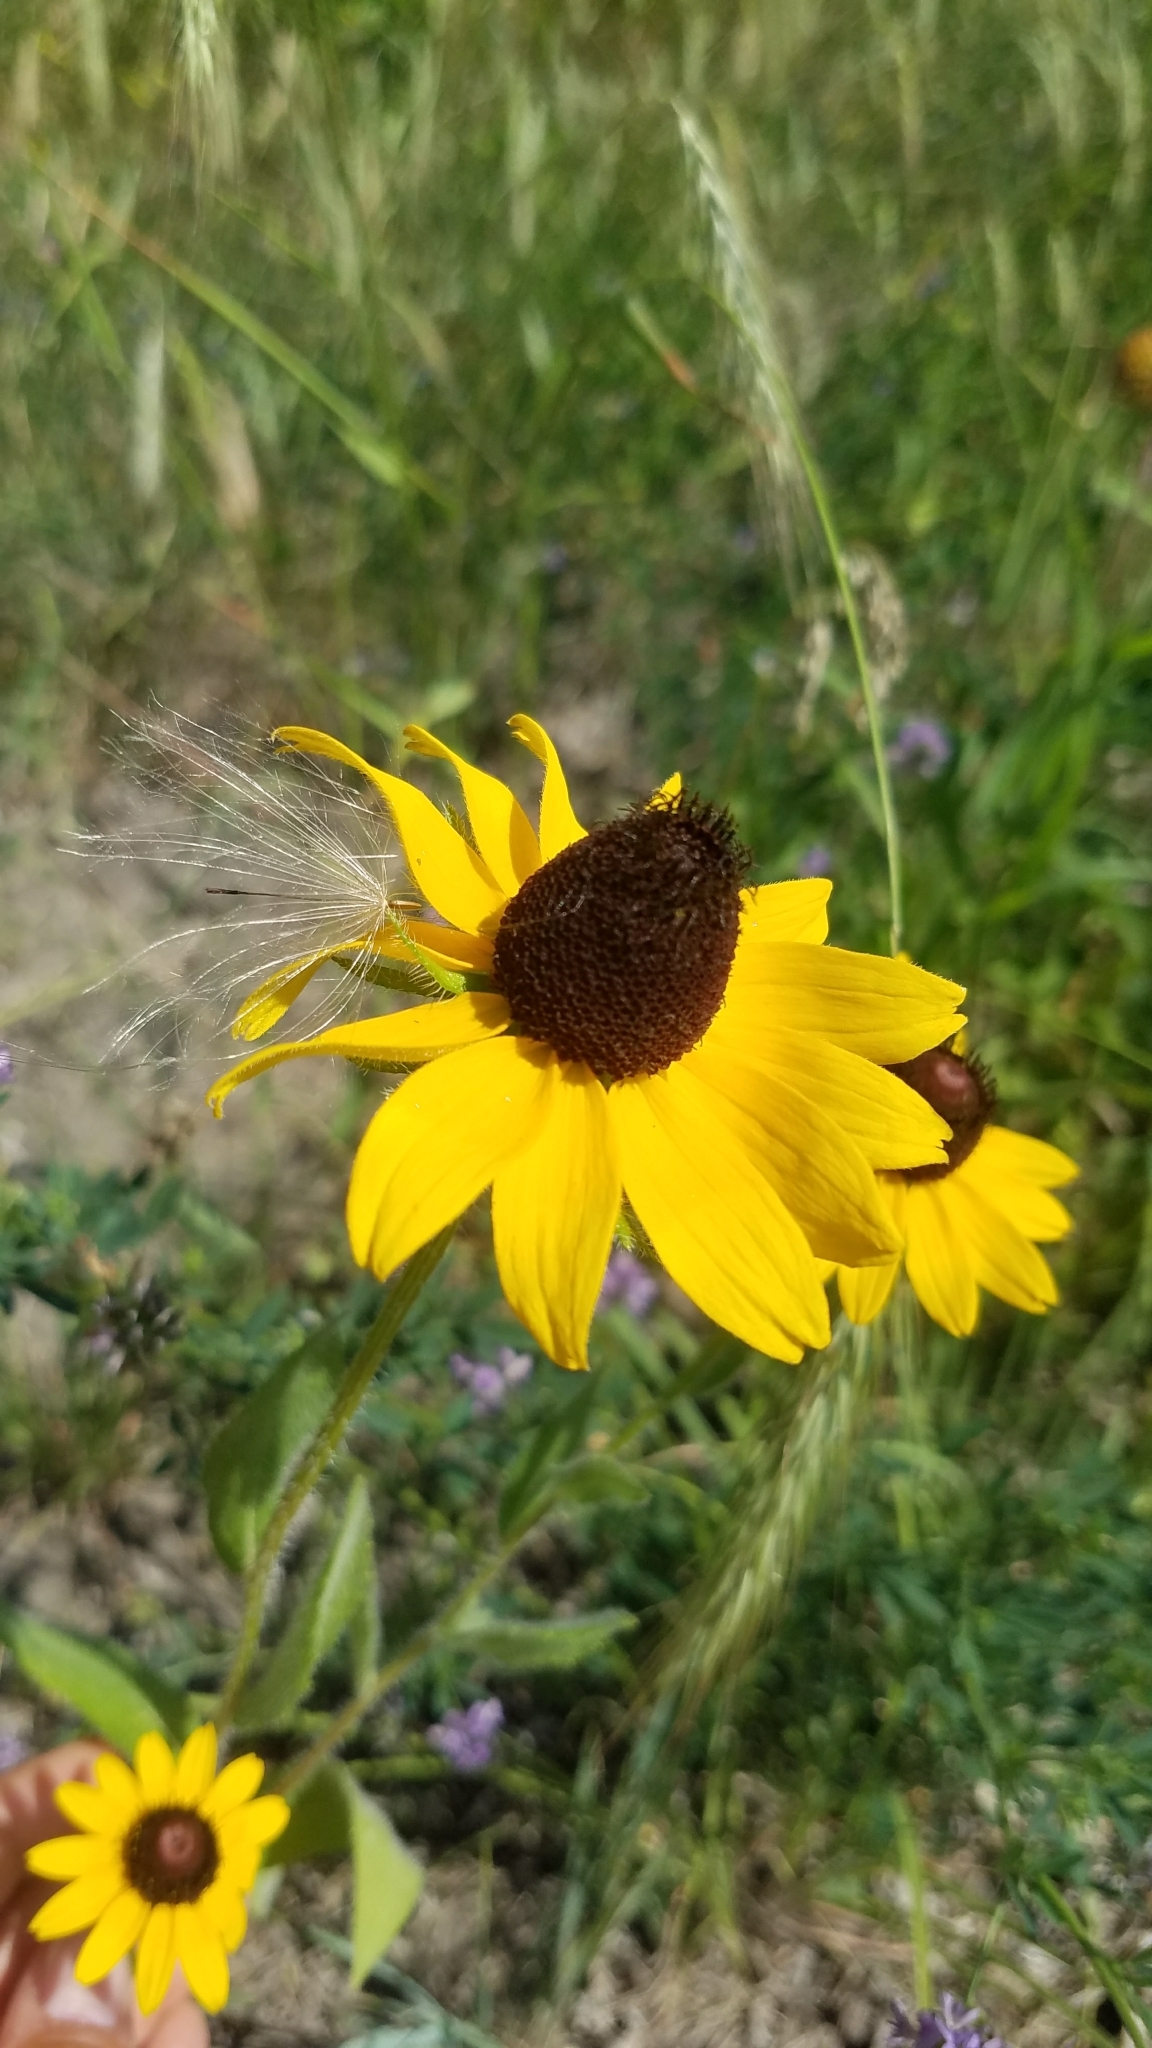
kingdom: Plantae
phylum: Tracheophyta
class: Magnoliopsida
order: Asterales
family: Asteraceae
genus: Rudbeckia
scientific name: Rudbeckia hirta
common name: Black-eyed-susan
